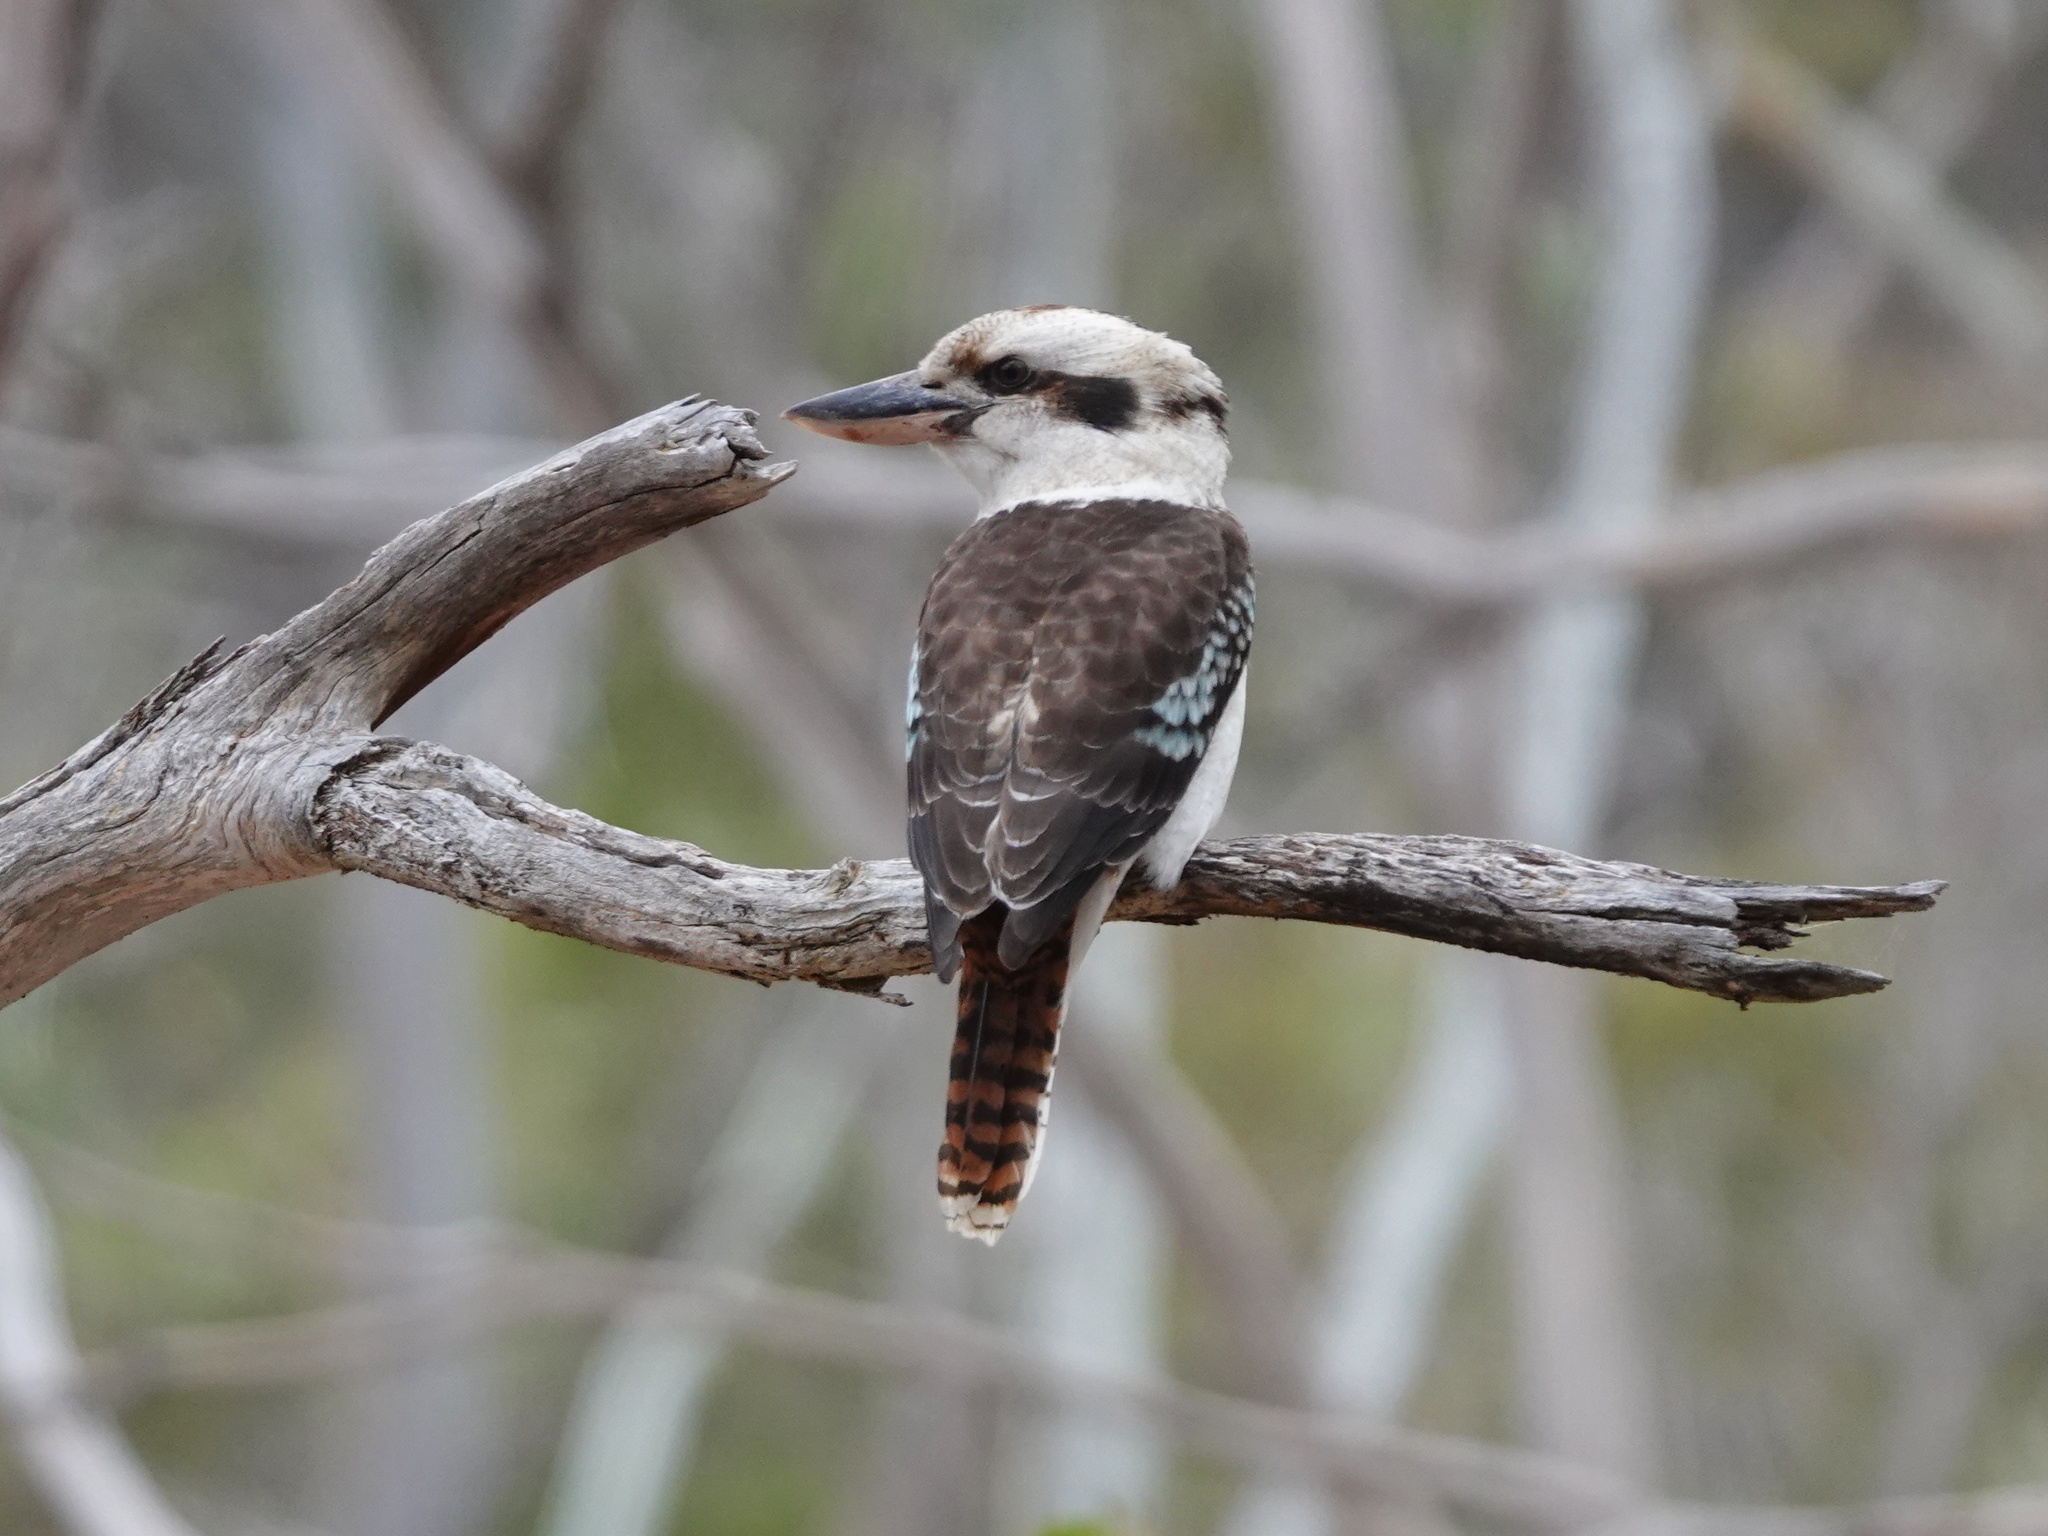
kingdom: Animalia
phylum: Chordata
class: Aves
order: Coraciiformes
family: Alcedinidae
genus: Dacelo
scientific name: Dacelo novaeguineae
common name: Laughing kookaburra
